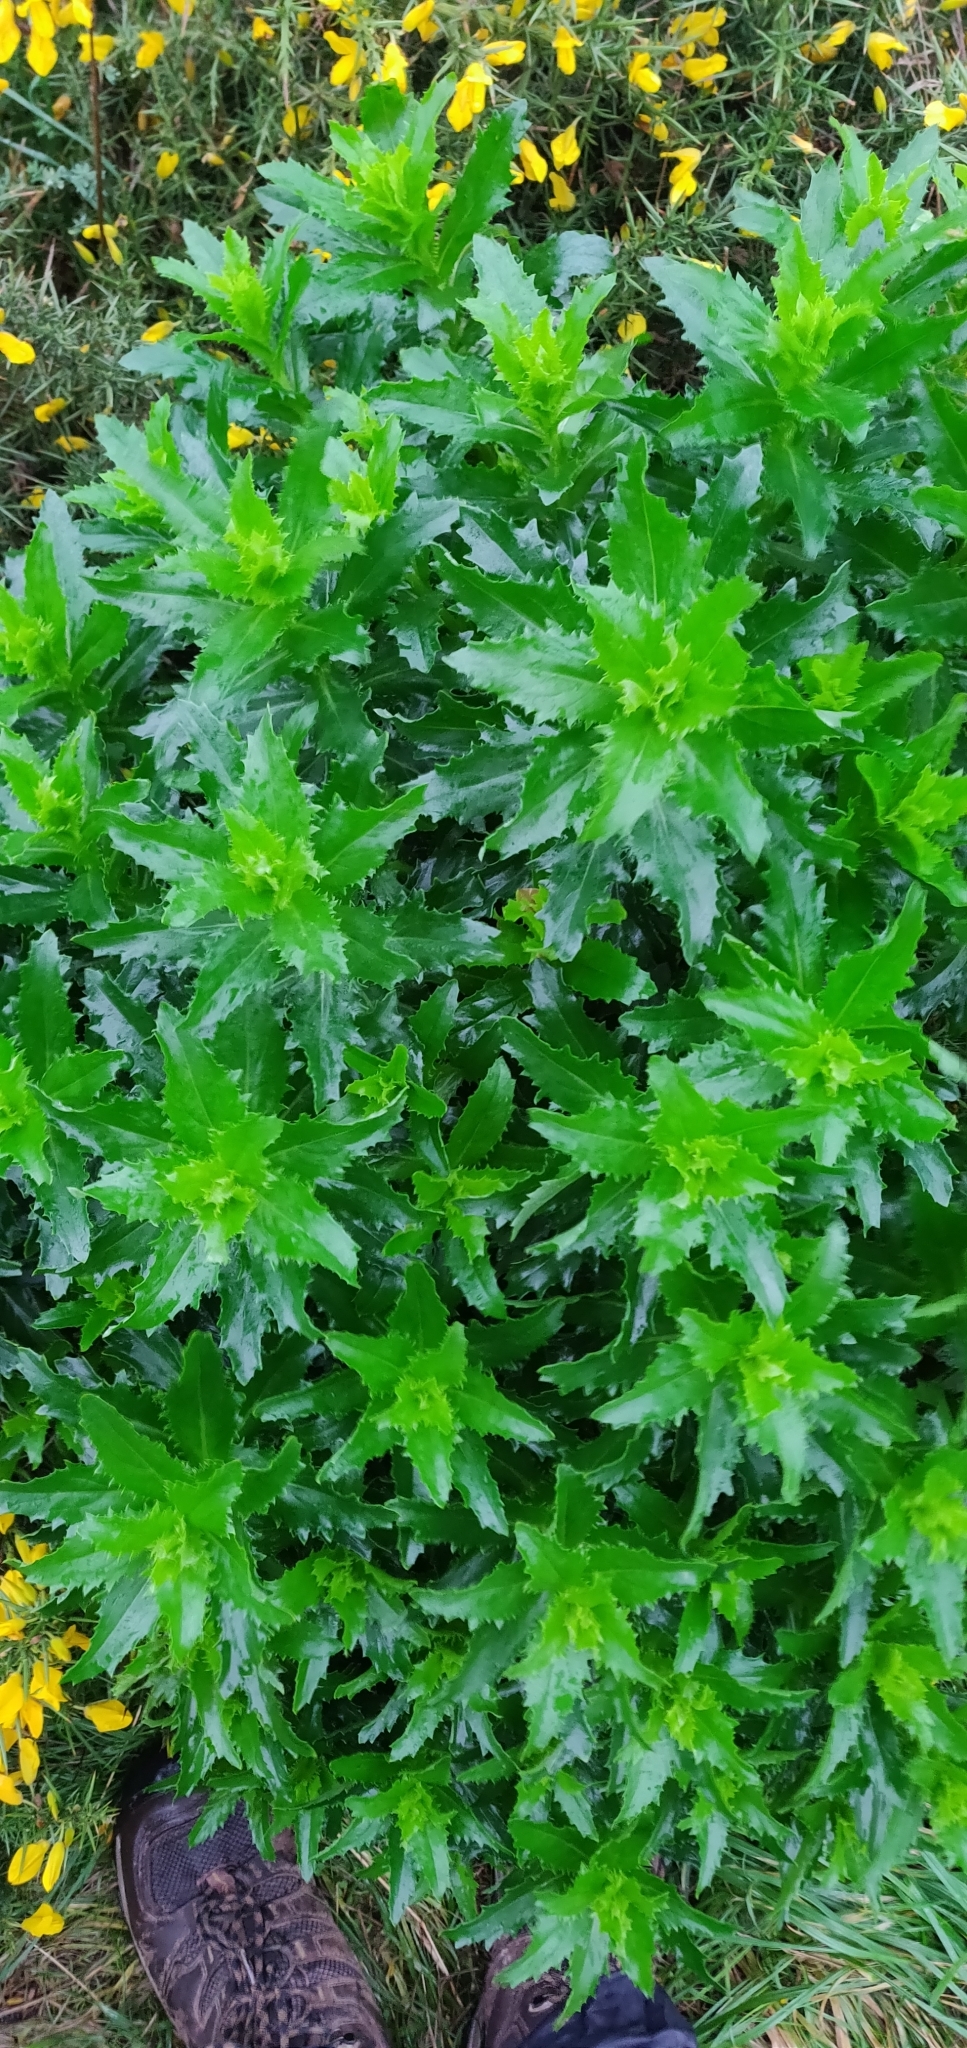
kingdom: Plantae
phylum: Tracheophyta
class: Magnoliopsida
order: Asterales
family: Asteraceae
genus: Senecio
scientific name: Senecio glastifolius
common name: Woad-leaved ragwort
